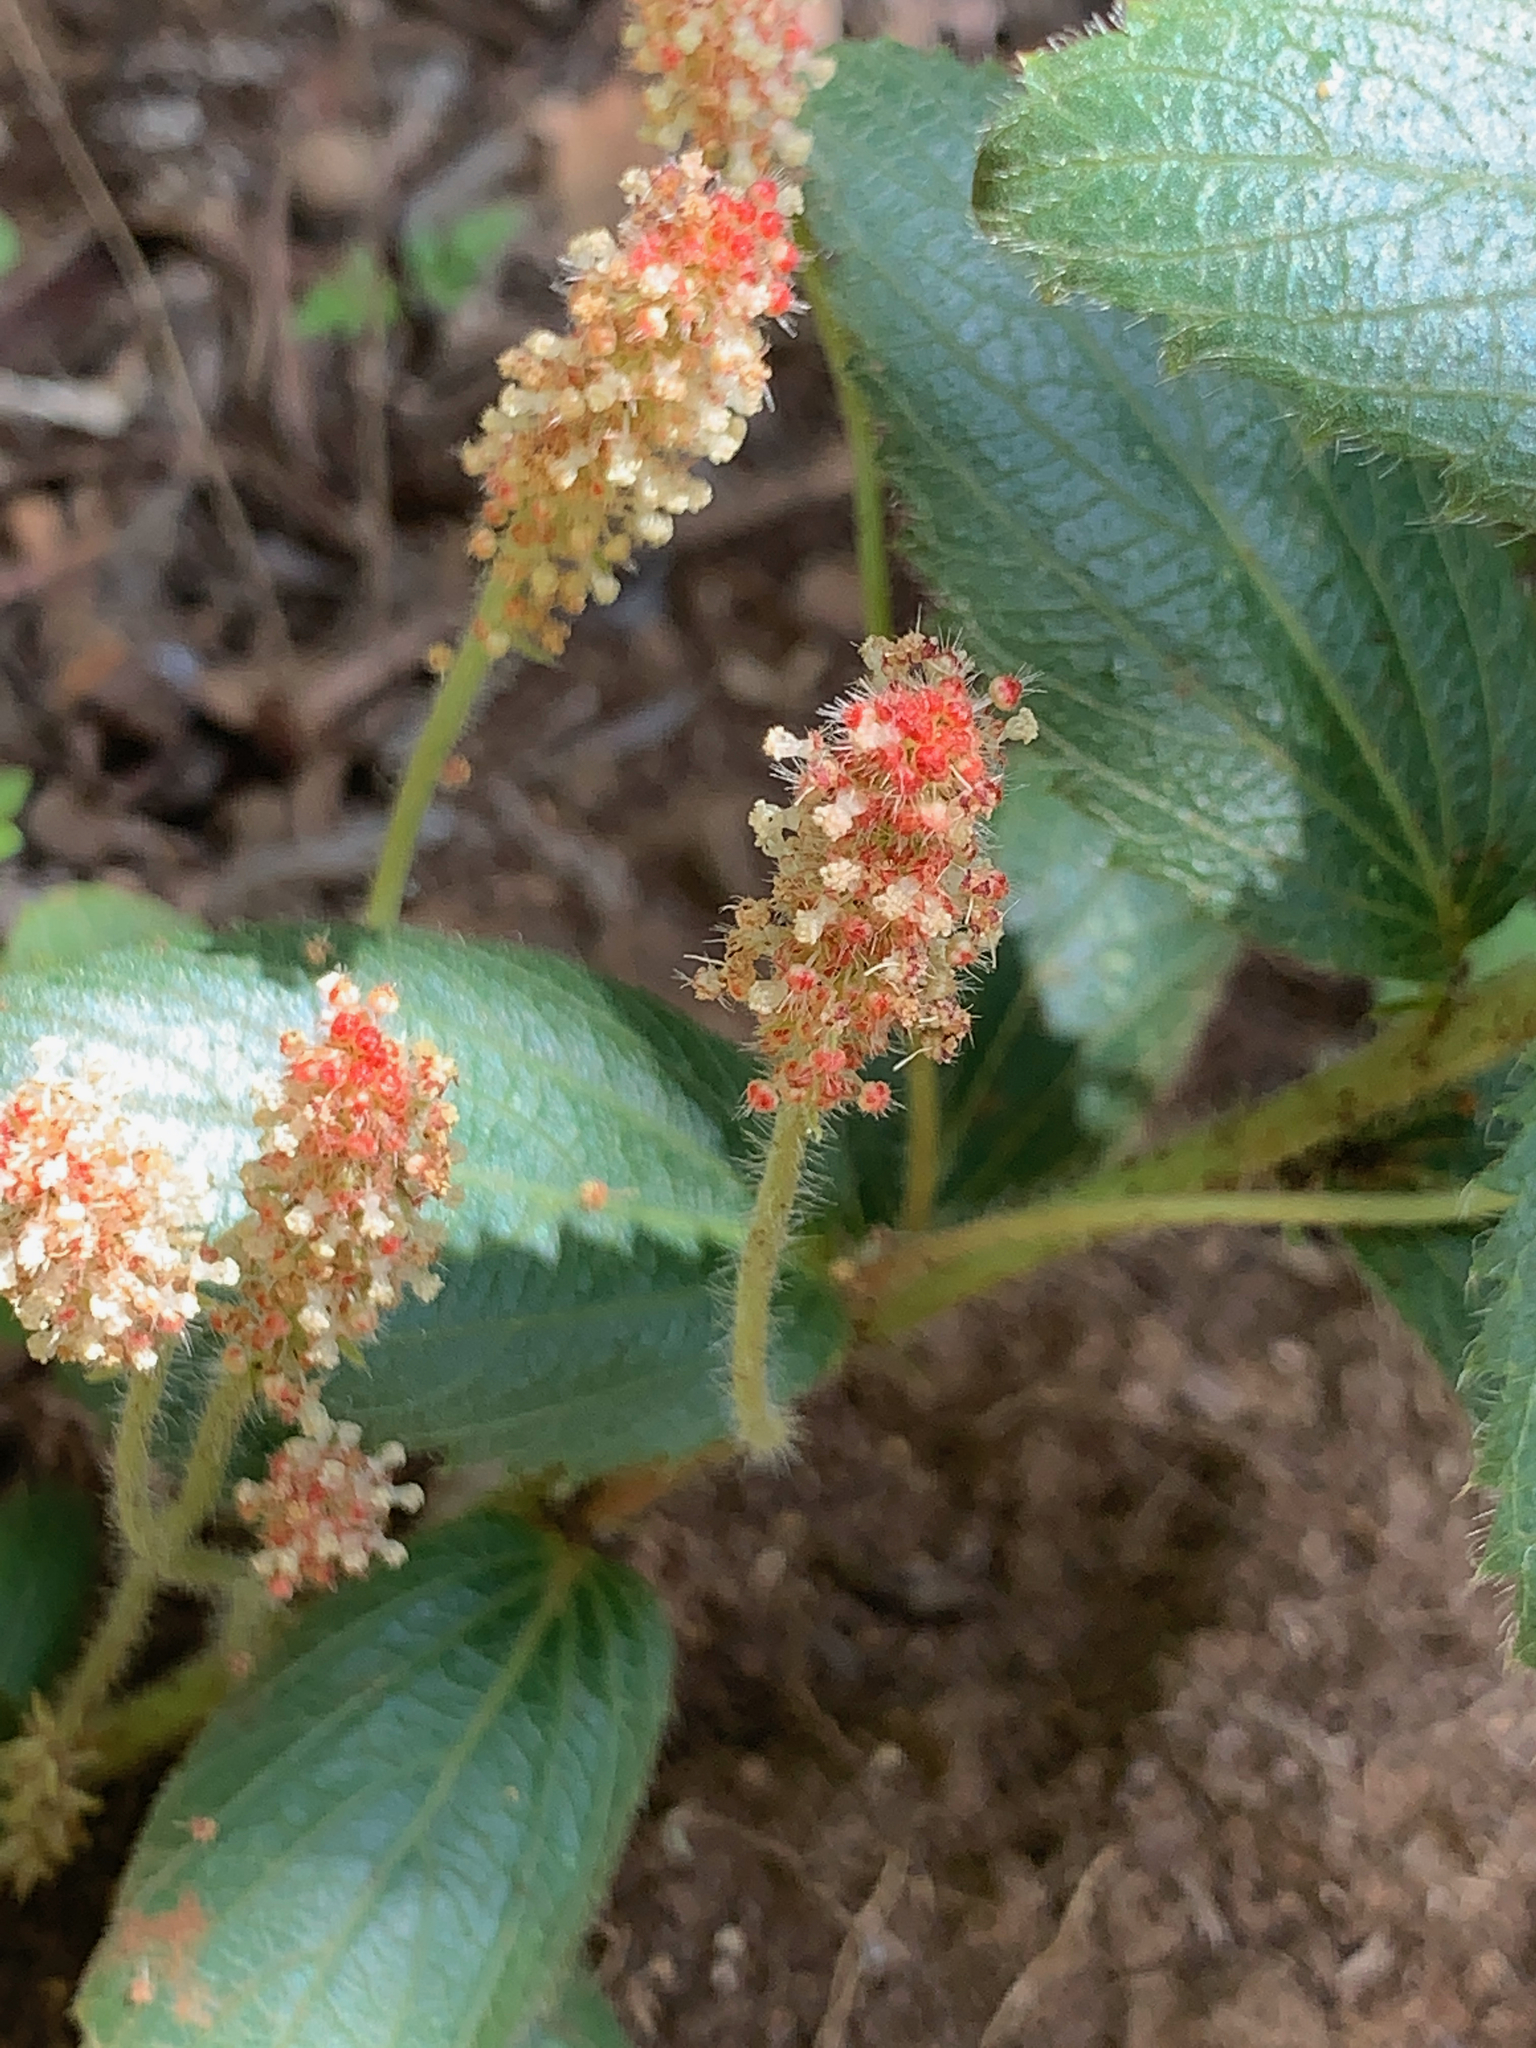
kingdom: Plantae
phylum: Tracheophyta
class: Magnoliopsida
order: Malpighiales
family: Euphorbiaceae
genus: Acalypha
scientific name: Acalypha angustata
